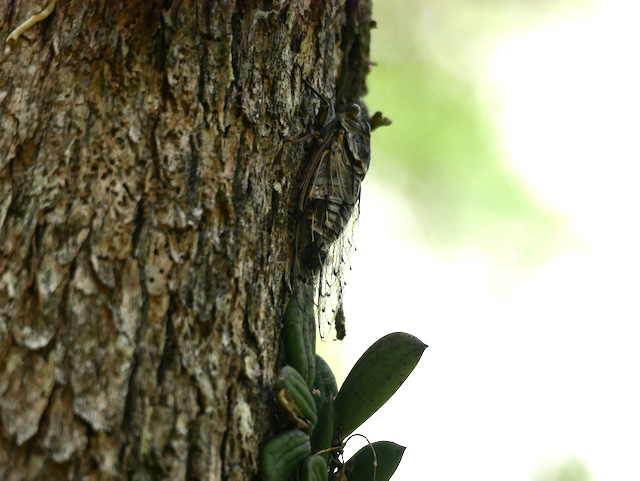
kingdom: Animalia
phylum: Arthropoda
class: Insecta
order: Hemiptera
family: Cicadidae
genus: Henicopsaltria
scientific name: Henicopsaltria eydouxii
